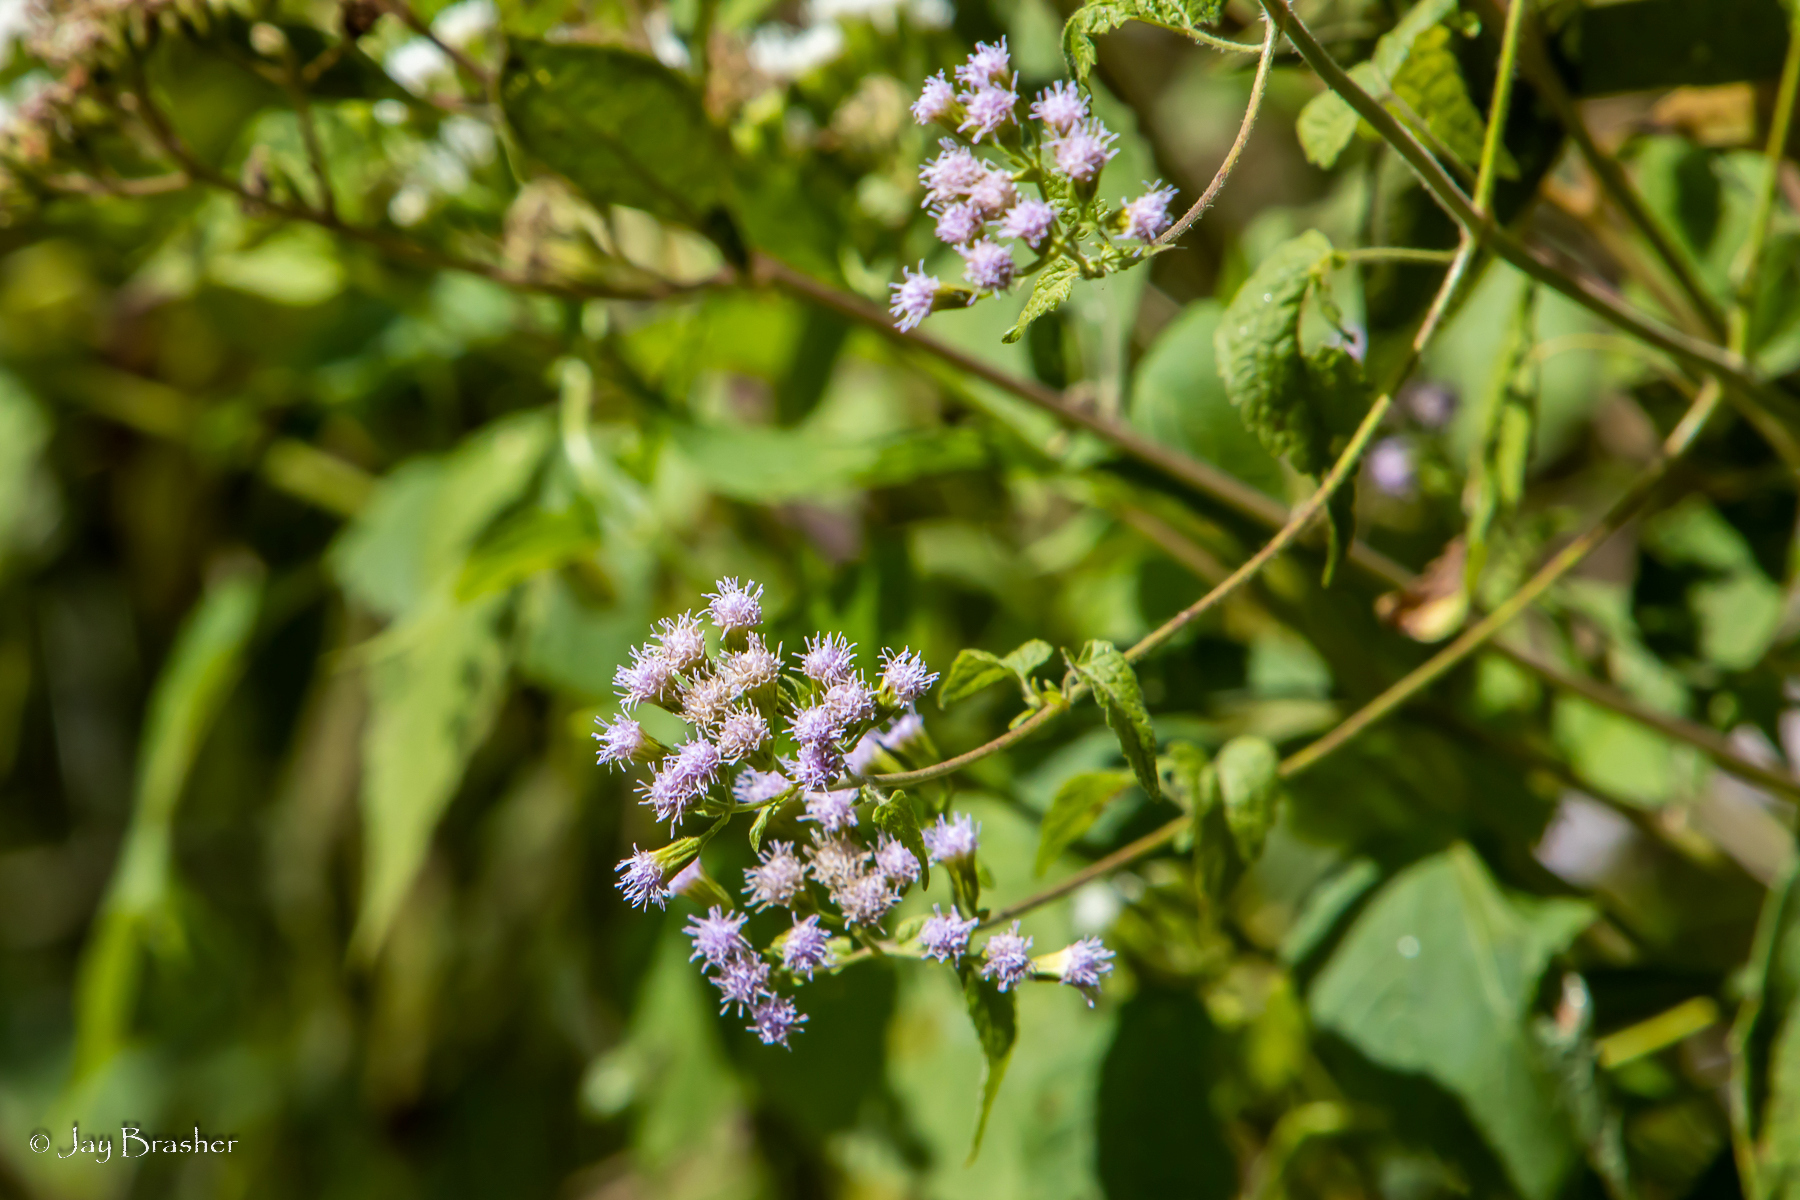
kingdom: Plantae
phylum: Tracheophyta
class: Magnoliopsida
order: Asterales
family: Asteraceae
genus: Fleischmannia
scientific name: Fleischmannia incarnata
